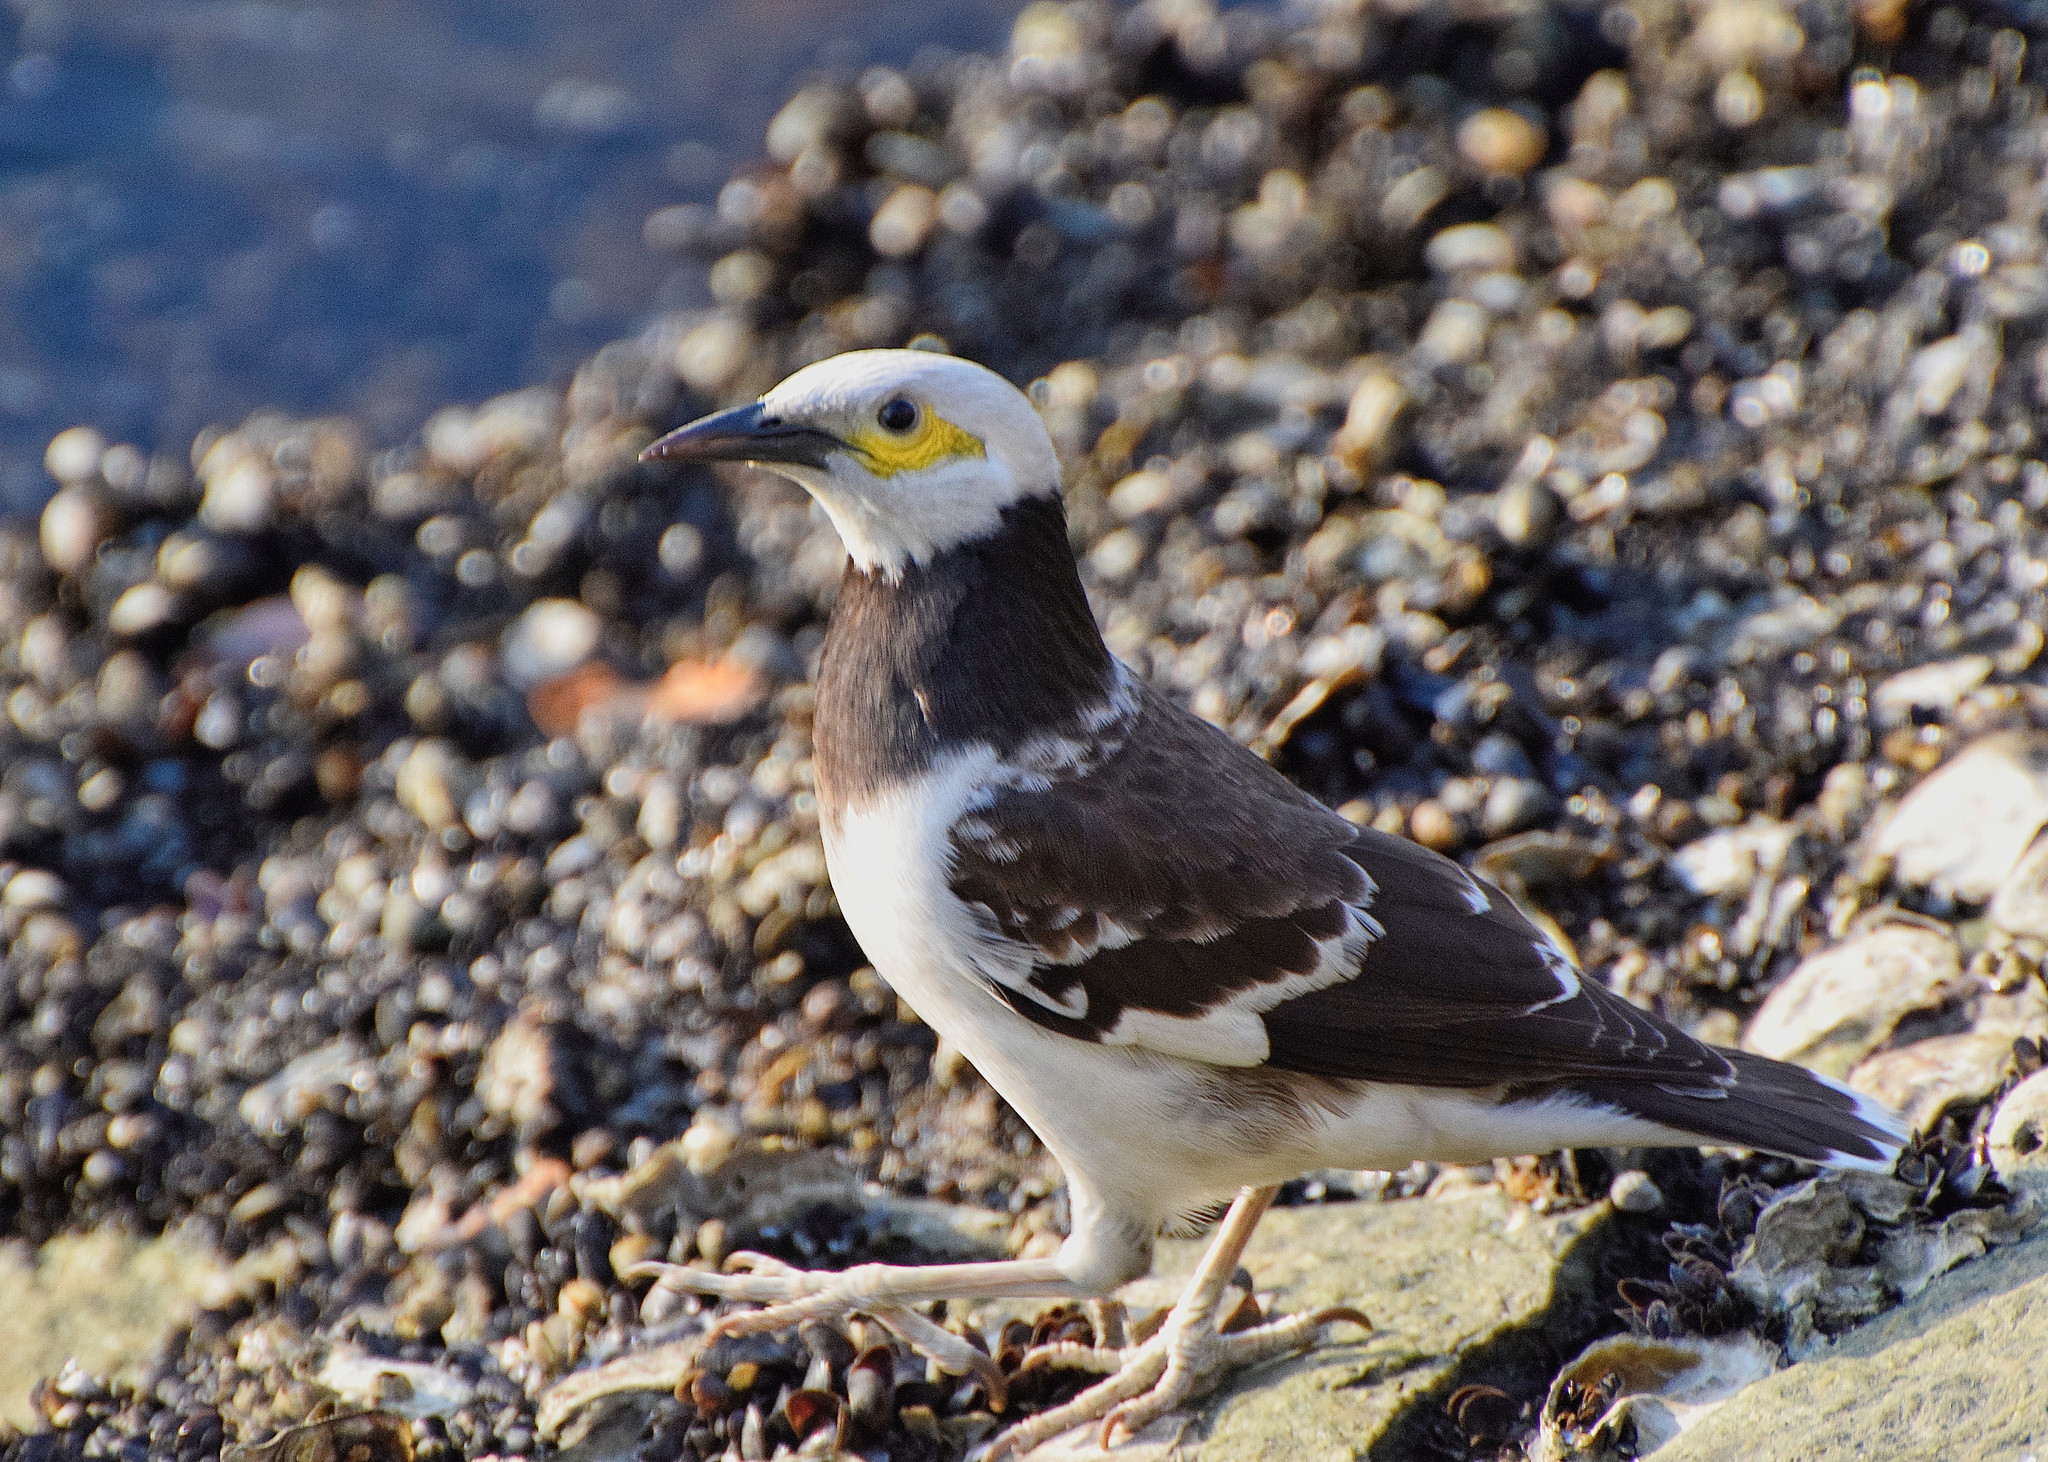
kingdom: Animalia
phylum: Chordata
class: Aves
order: Passeriformes
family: Sturnidae
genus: Gracupica
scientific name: Gracupica nigricollis
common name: Black-collared starling
